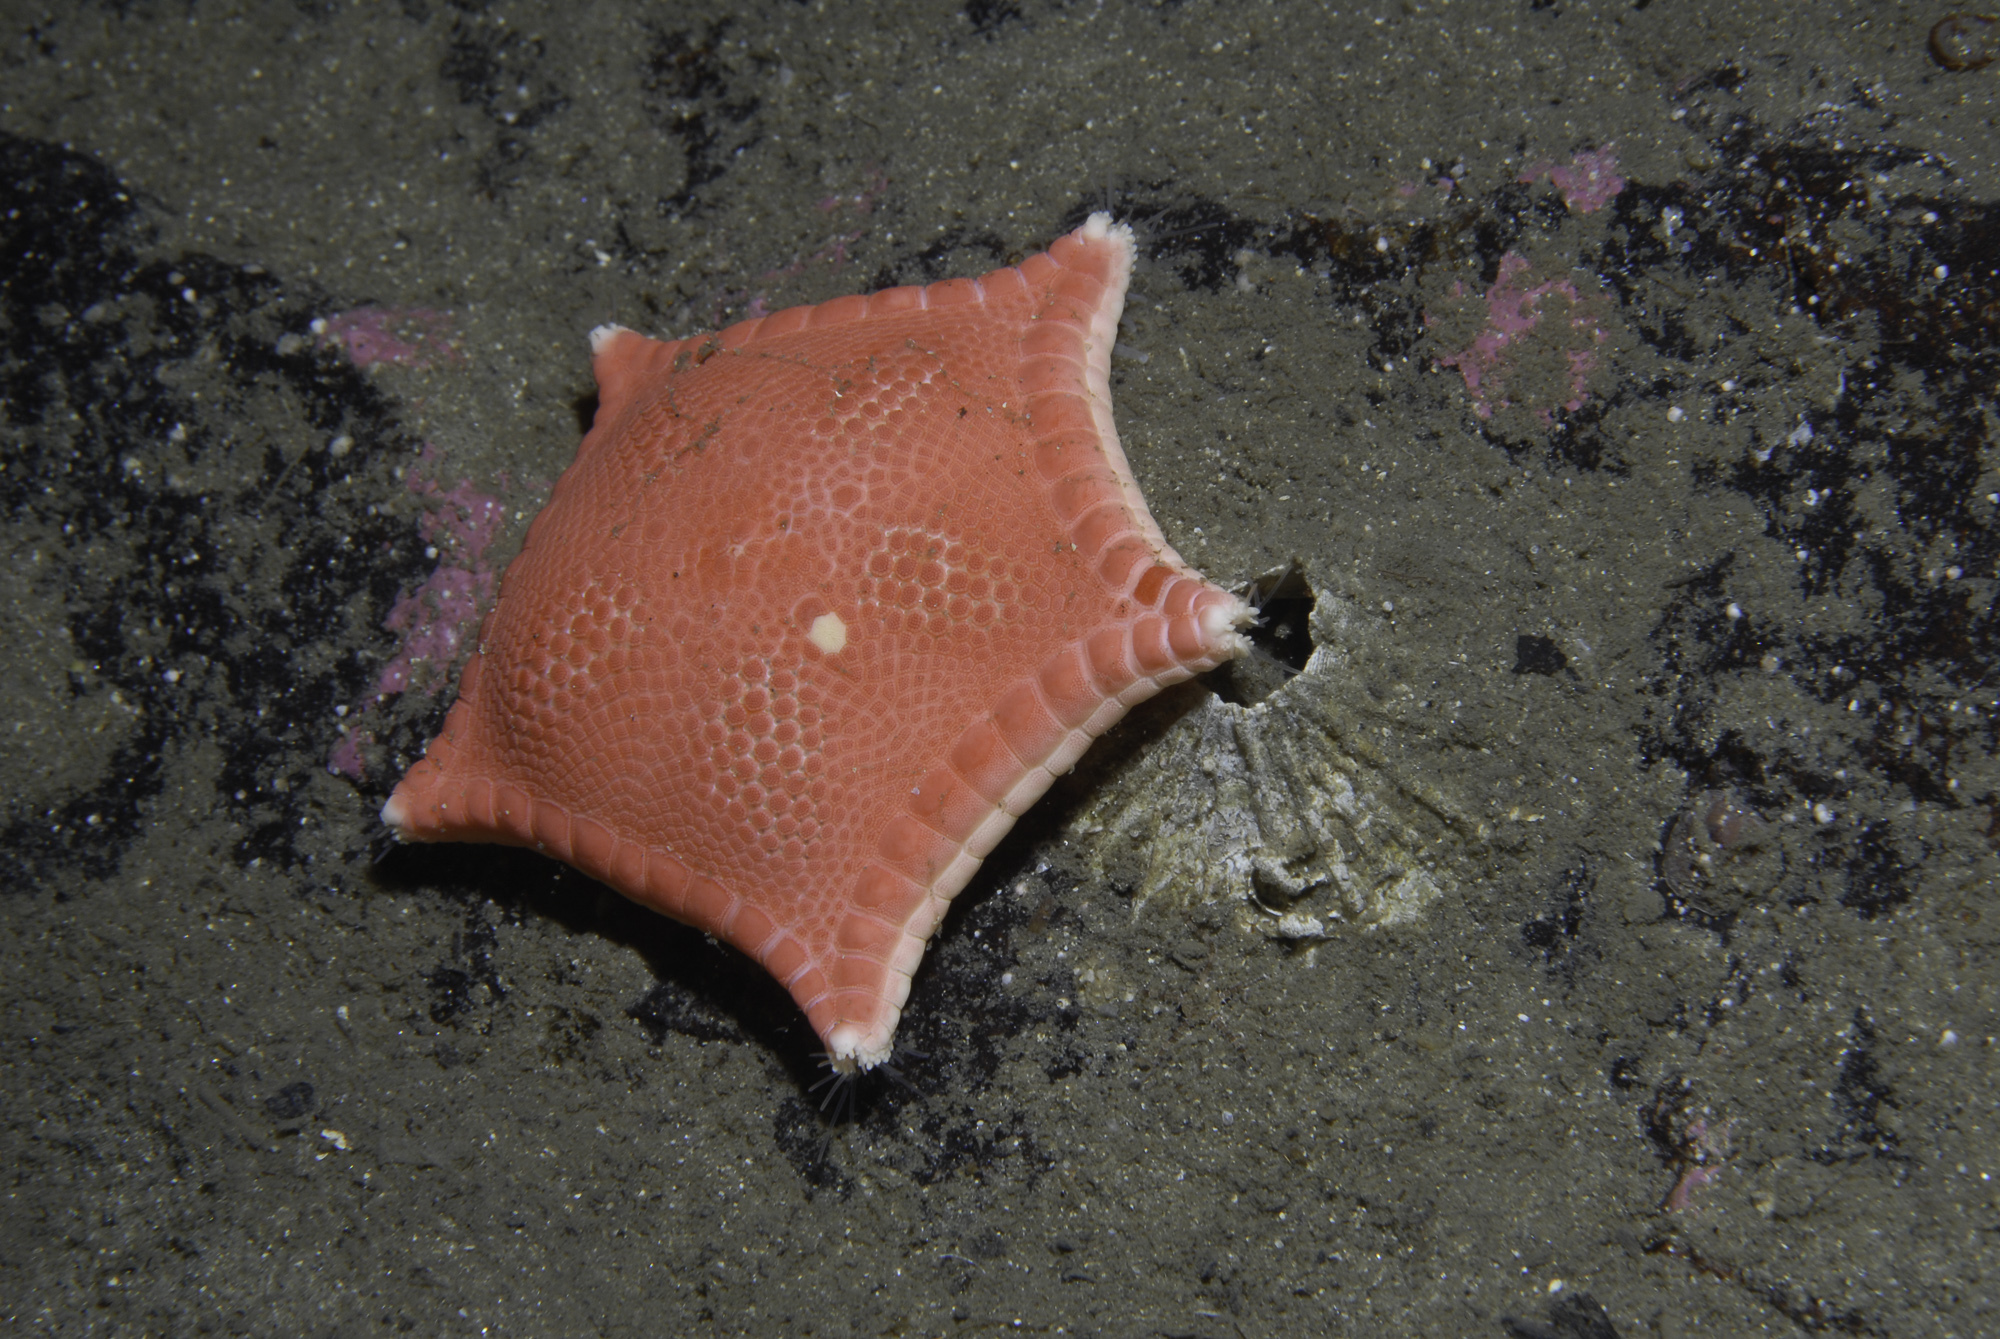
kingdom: Animalia
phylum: Echinodermata
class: Asteroidea
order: Valvatida
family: Goniasteridae
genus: Ceramaster
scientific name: Ceramaster granularis
